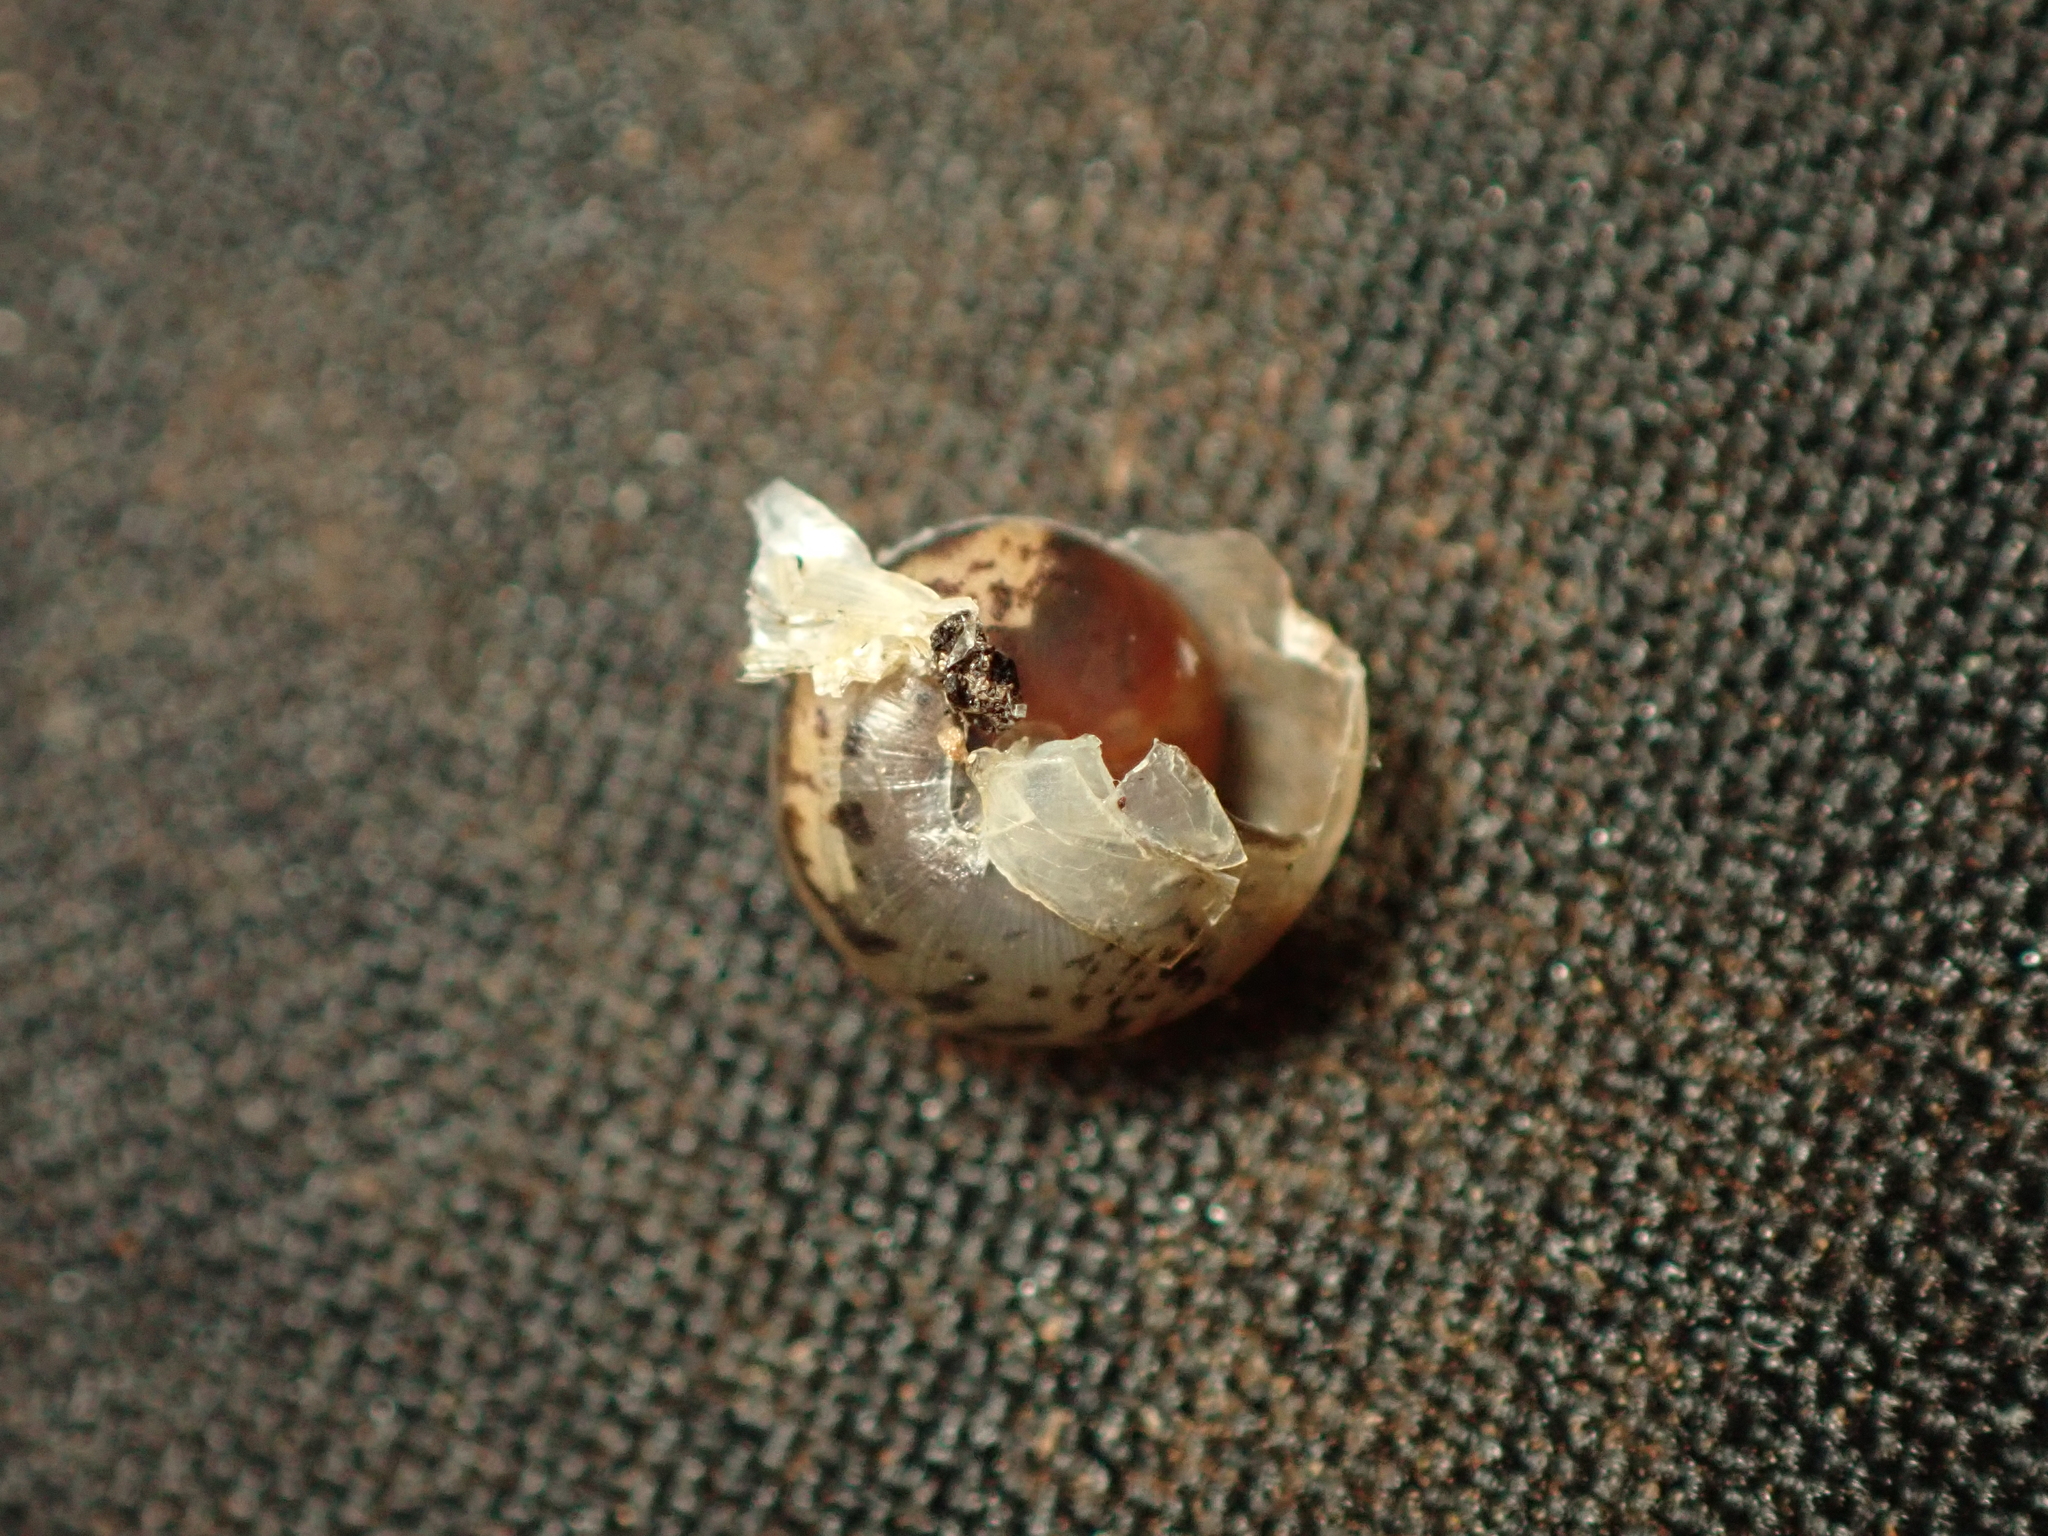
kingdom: Animalia
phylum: Mollusca
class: Gastropoda
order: Stylommatophora
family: Hygromiidae
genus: Hygromia
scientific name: Hygromia cinctella
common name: Girdled snail
